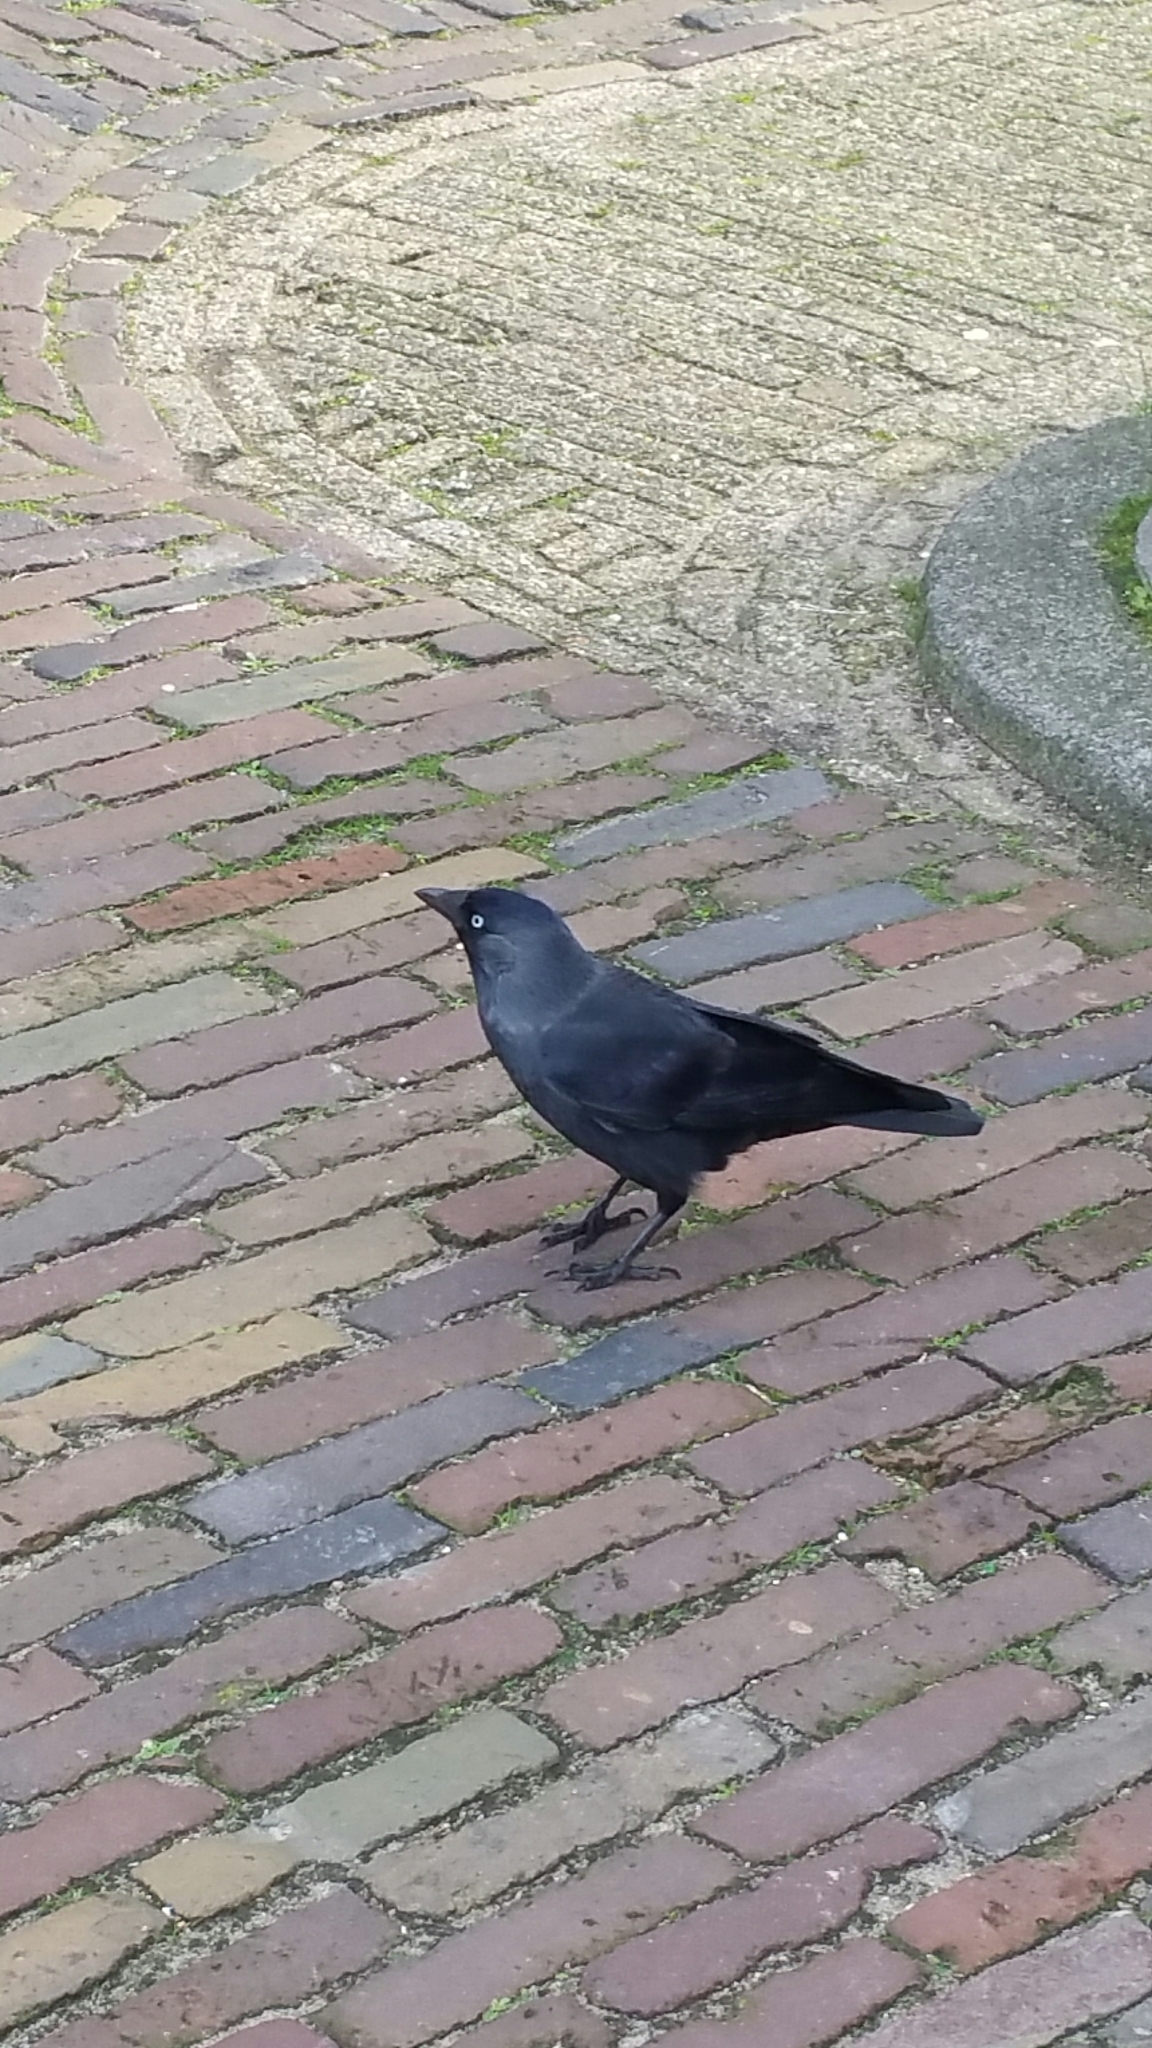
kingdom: Animalia
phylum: Chordata
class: Aves
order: Passeriformes
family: Corvidae
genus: Coloeus
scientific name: Coloeus monedula
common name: Western jackdaw
